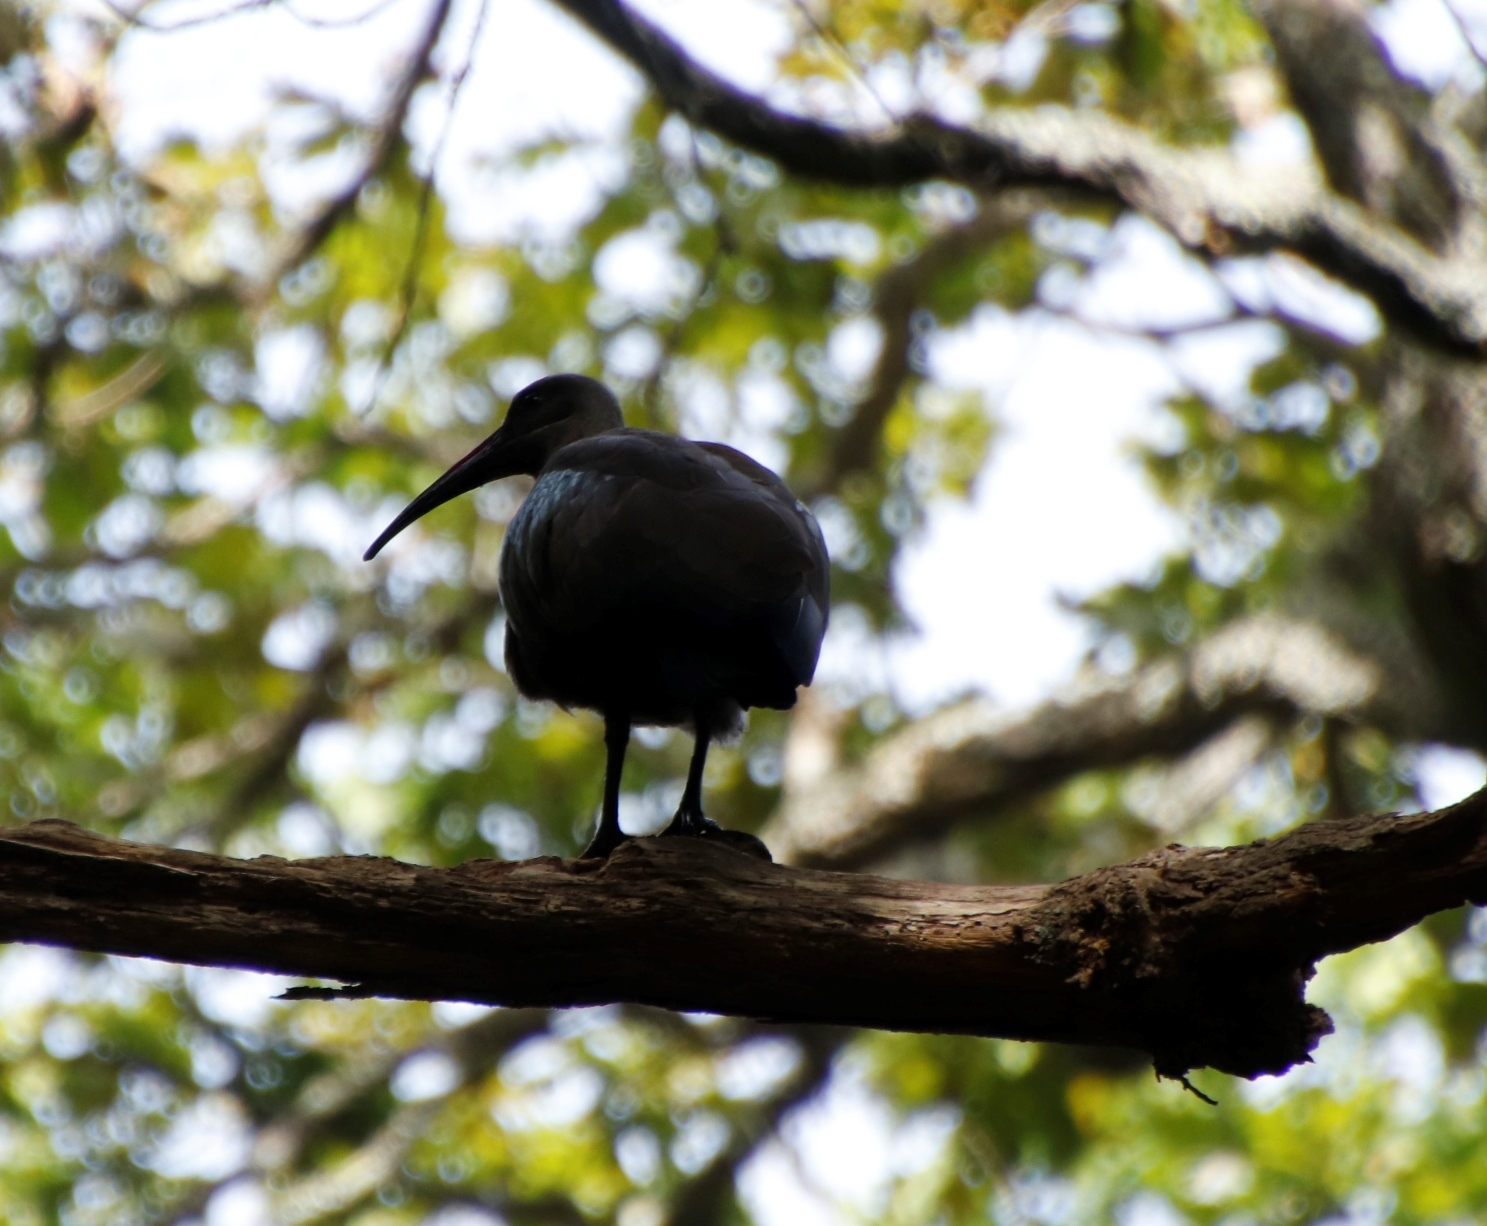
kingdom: Animalia
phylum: Chordata
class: Aves
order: Pelecaniformes
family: Threskiornithidae
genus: Bostrychia
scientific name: Bostrychia hagedash
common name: Hadada ibis
